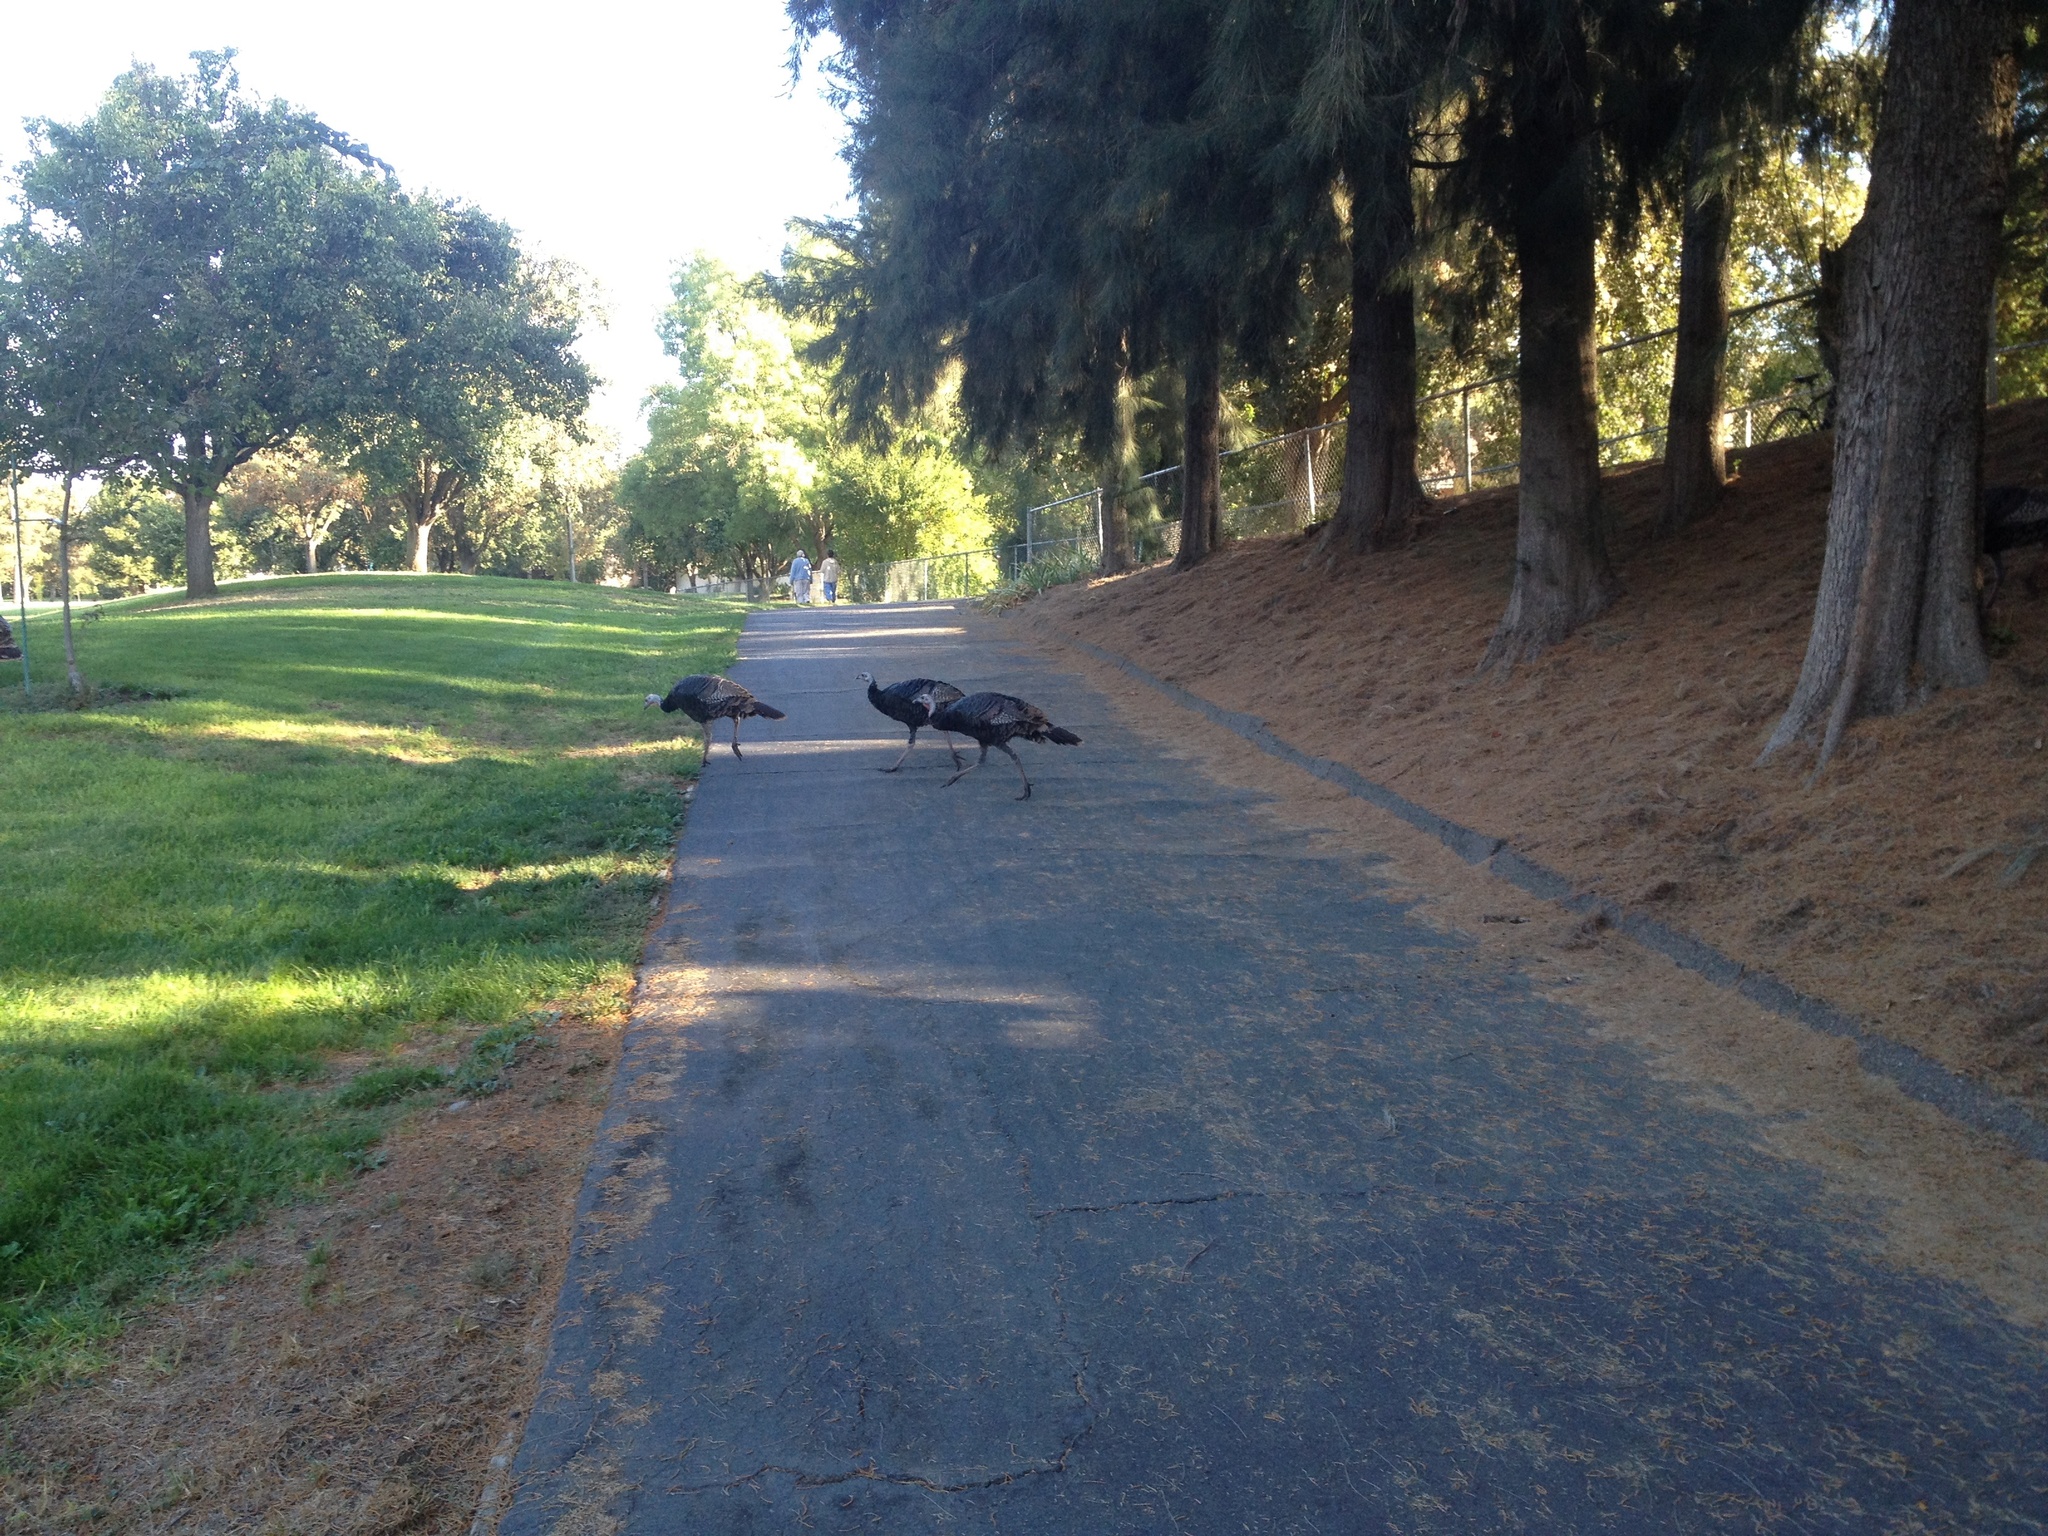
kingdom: Animalia
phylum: Chordata
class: Aves
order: Galliformes
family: Phasianidae
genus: Meleagris
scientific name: Meleagris gallopavo
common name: Wild turkey
